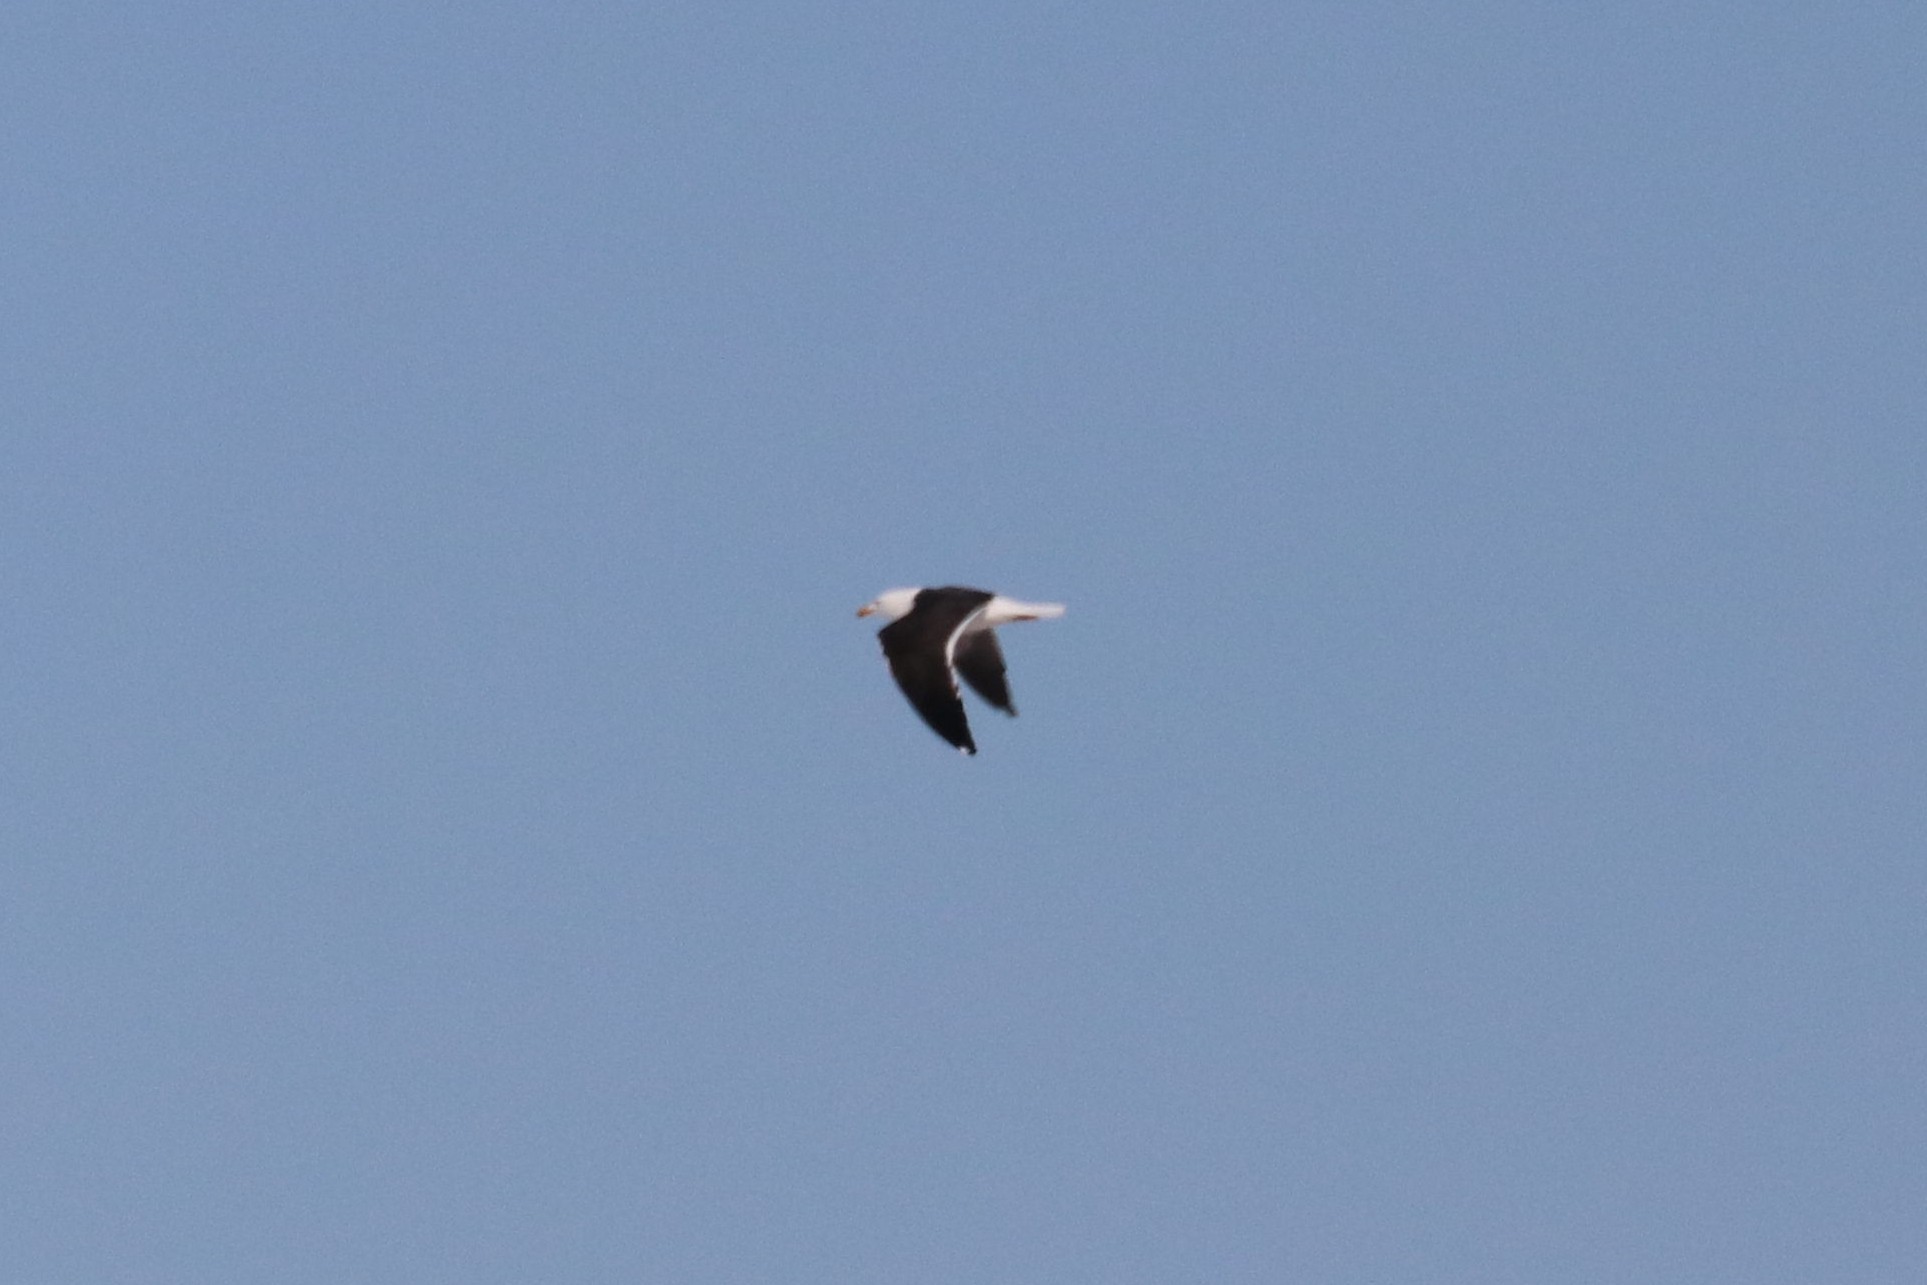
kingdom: Animalia
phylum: Chordata
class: Aves
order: Charadriiformes
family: Laridae
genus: Larus
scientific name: Larus fuscus
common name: Lesser black-backed gull
